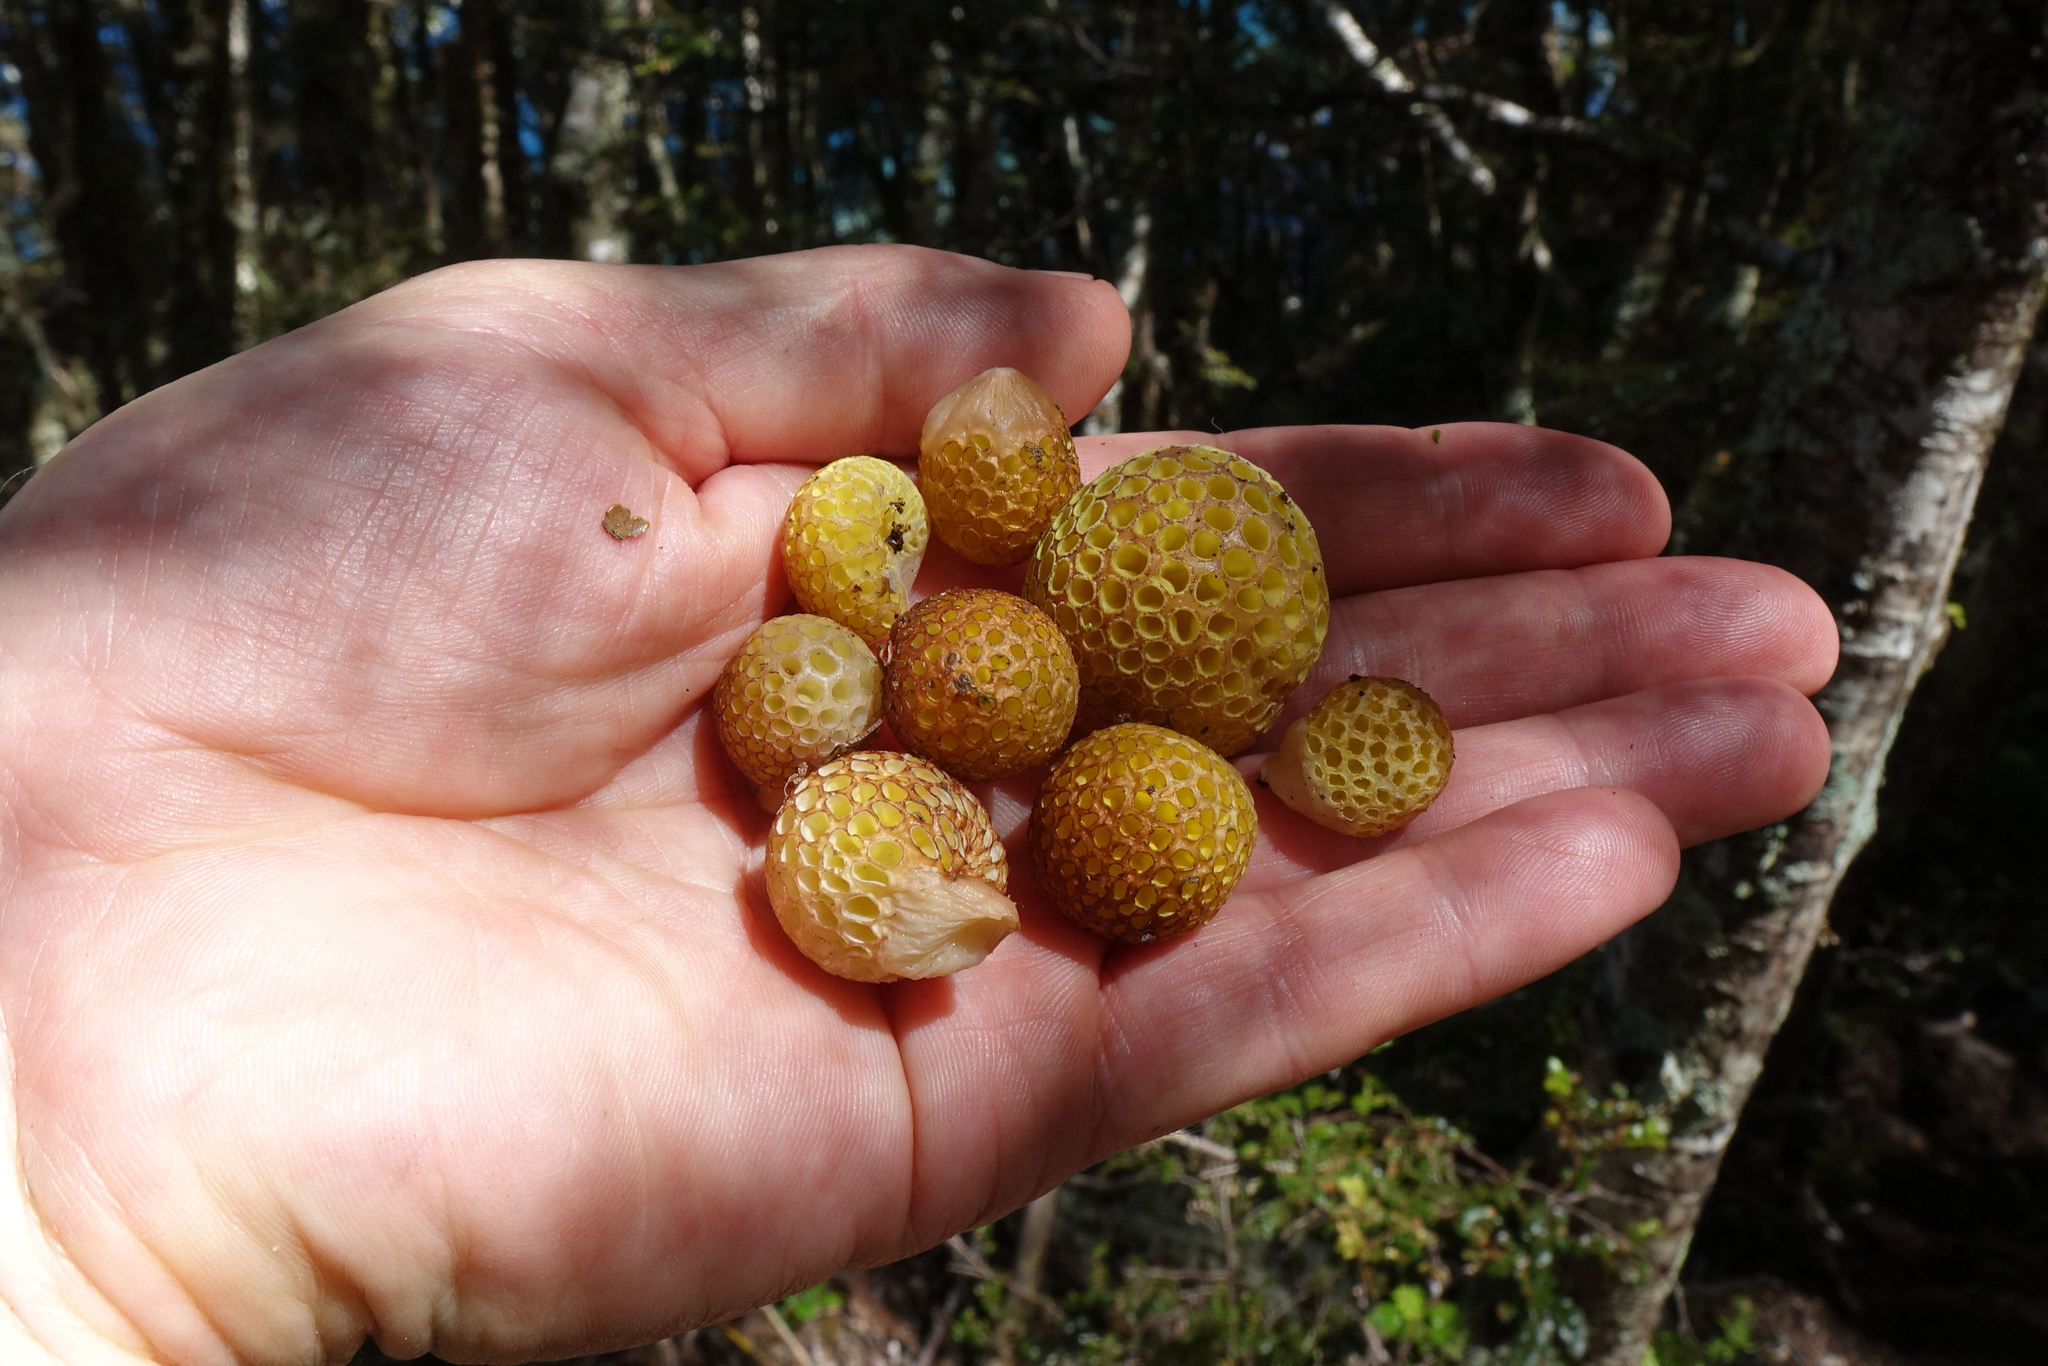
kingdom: Fungi
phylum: Ascomycota
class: Leotiomycetes
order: Cyttariales
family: Cyttariaceae
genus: Cyttaria
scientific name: Cyttaria gunnii
